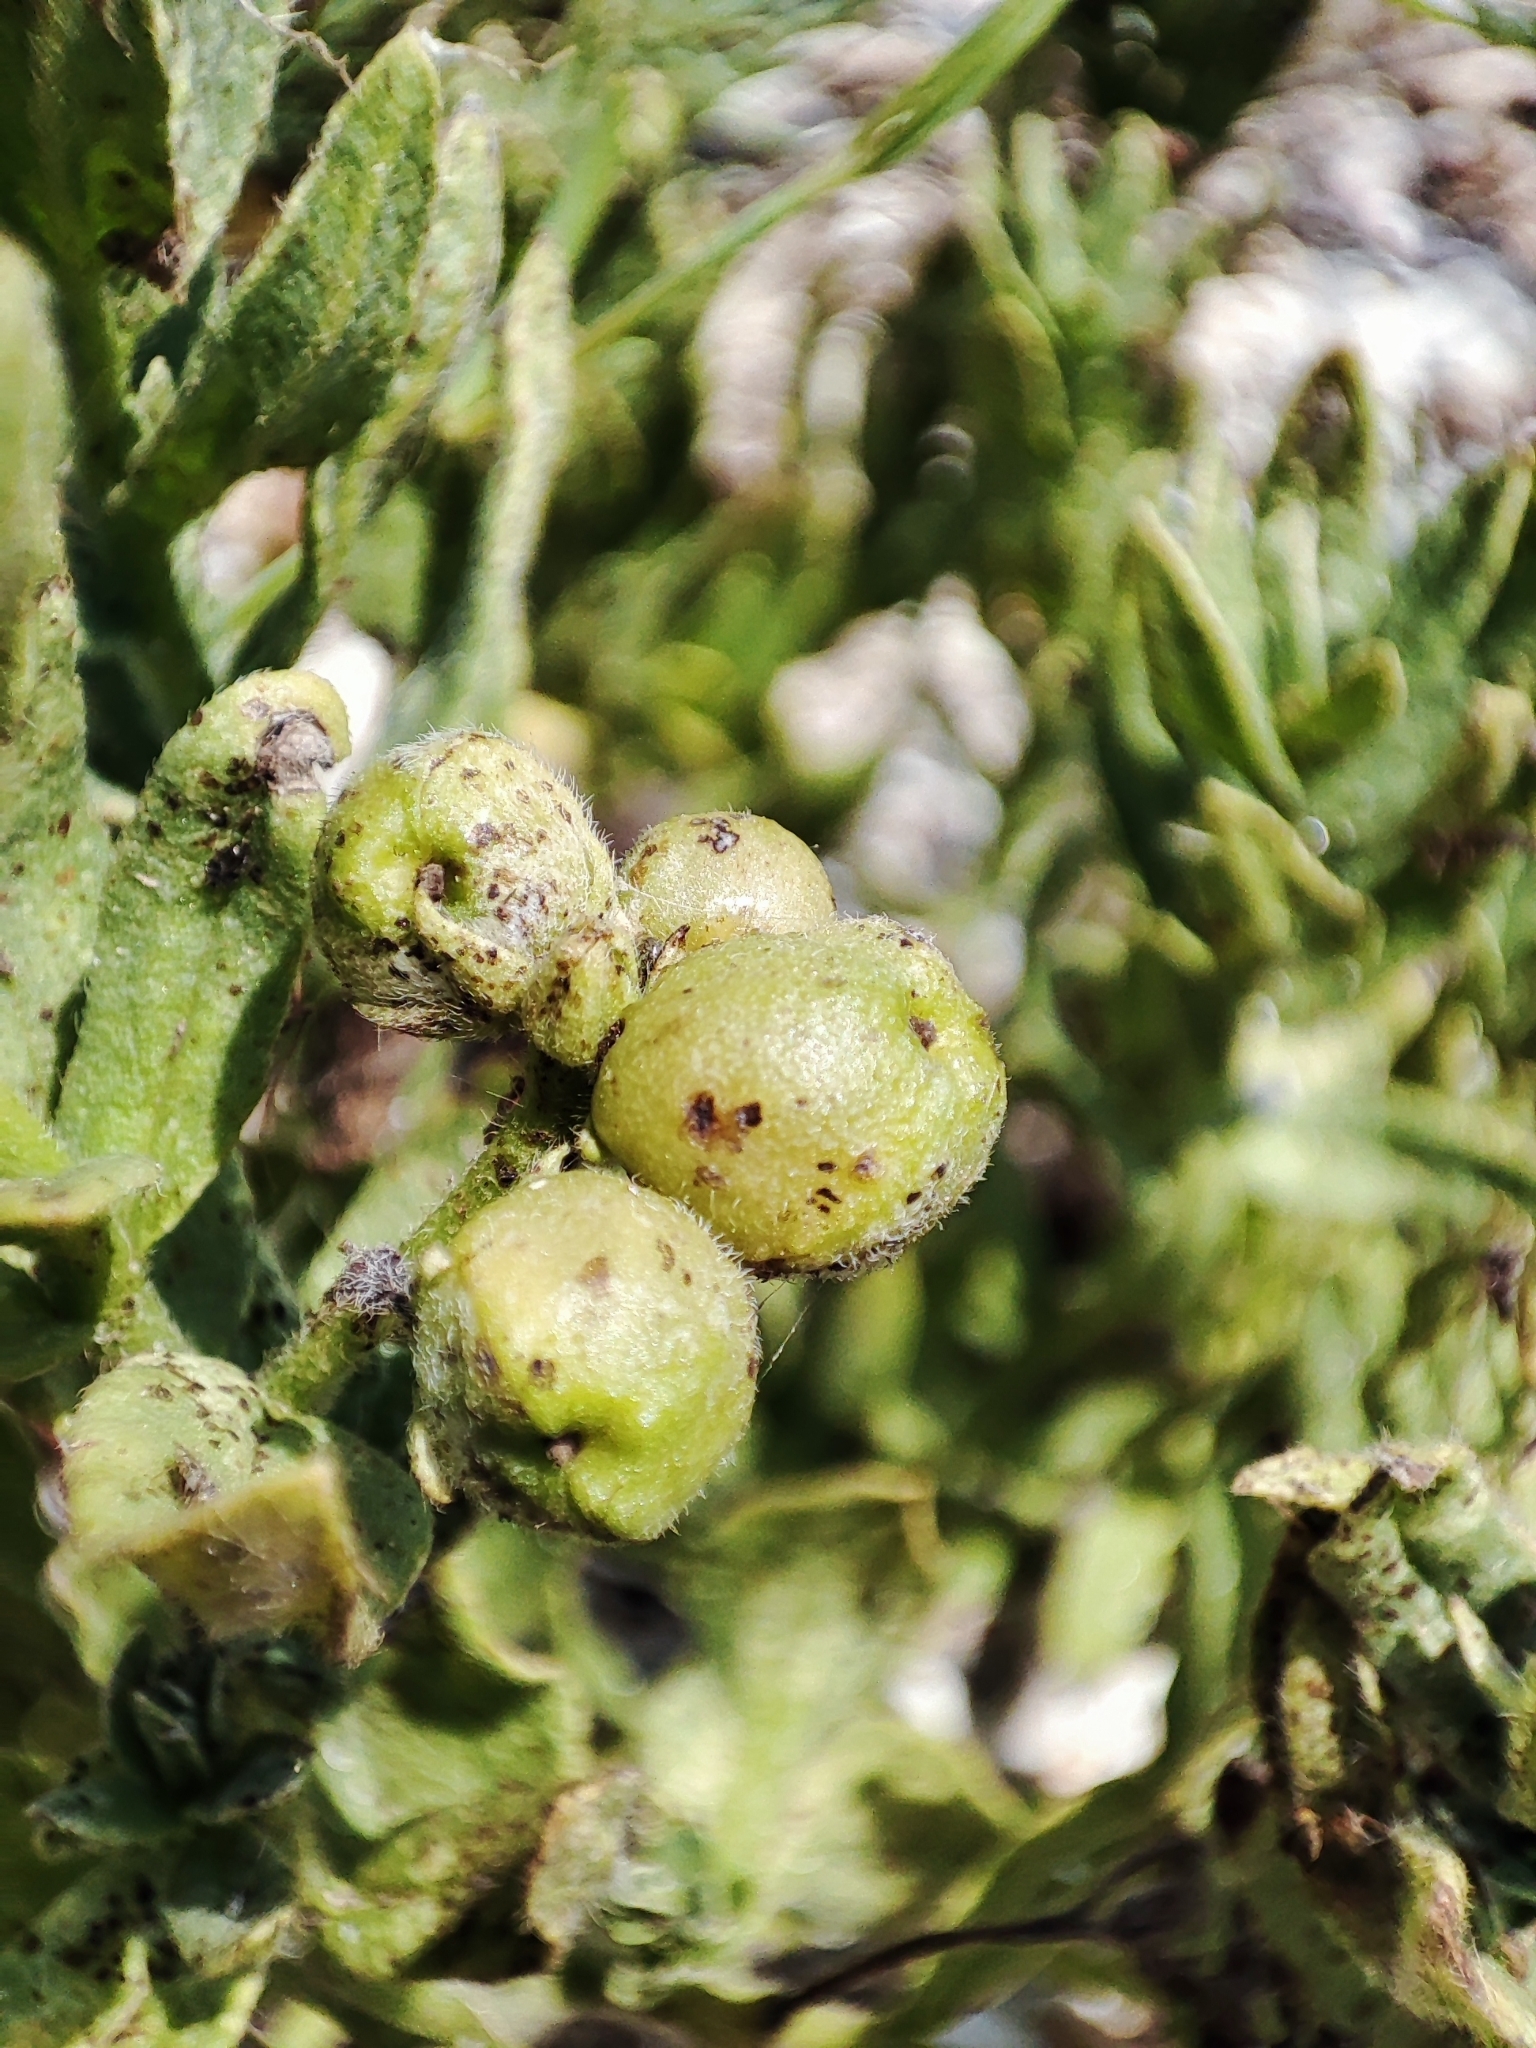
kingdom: Plantae
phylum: Tracheophyta
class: Magnoliopsida
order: Boraginales
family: Heliotropiaceae
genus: Tournefortia
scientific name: Tournefortia sibirica
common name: Siberian sea rosemary
